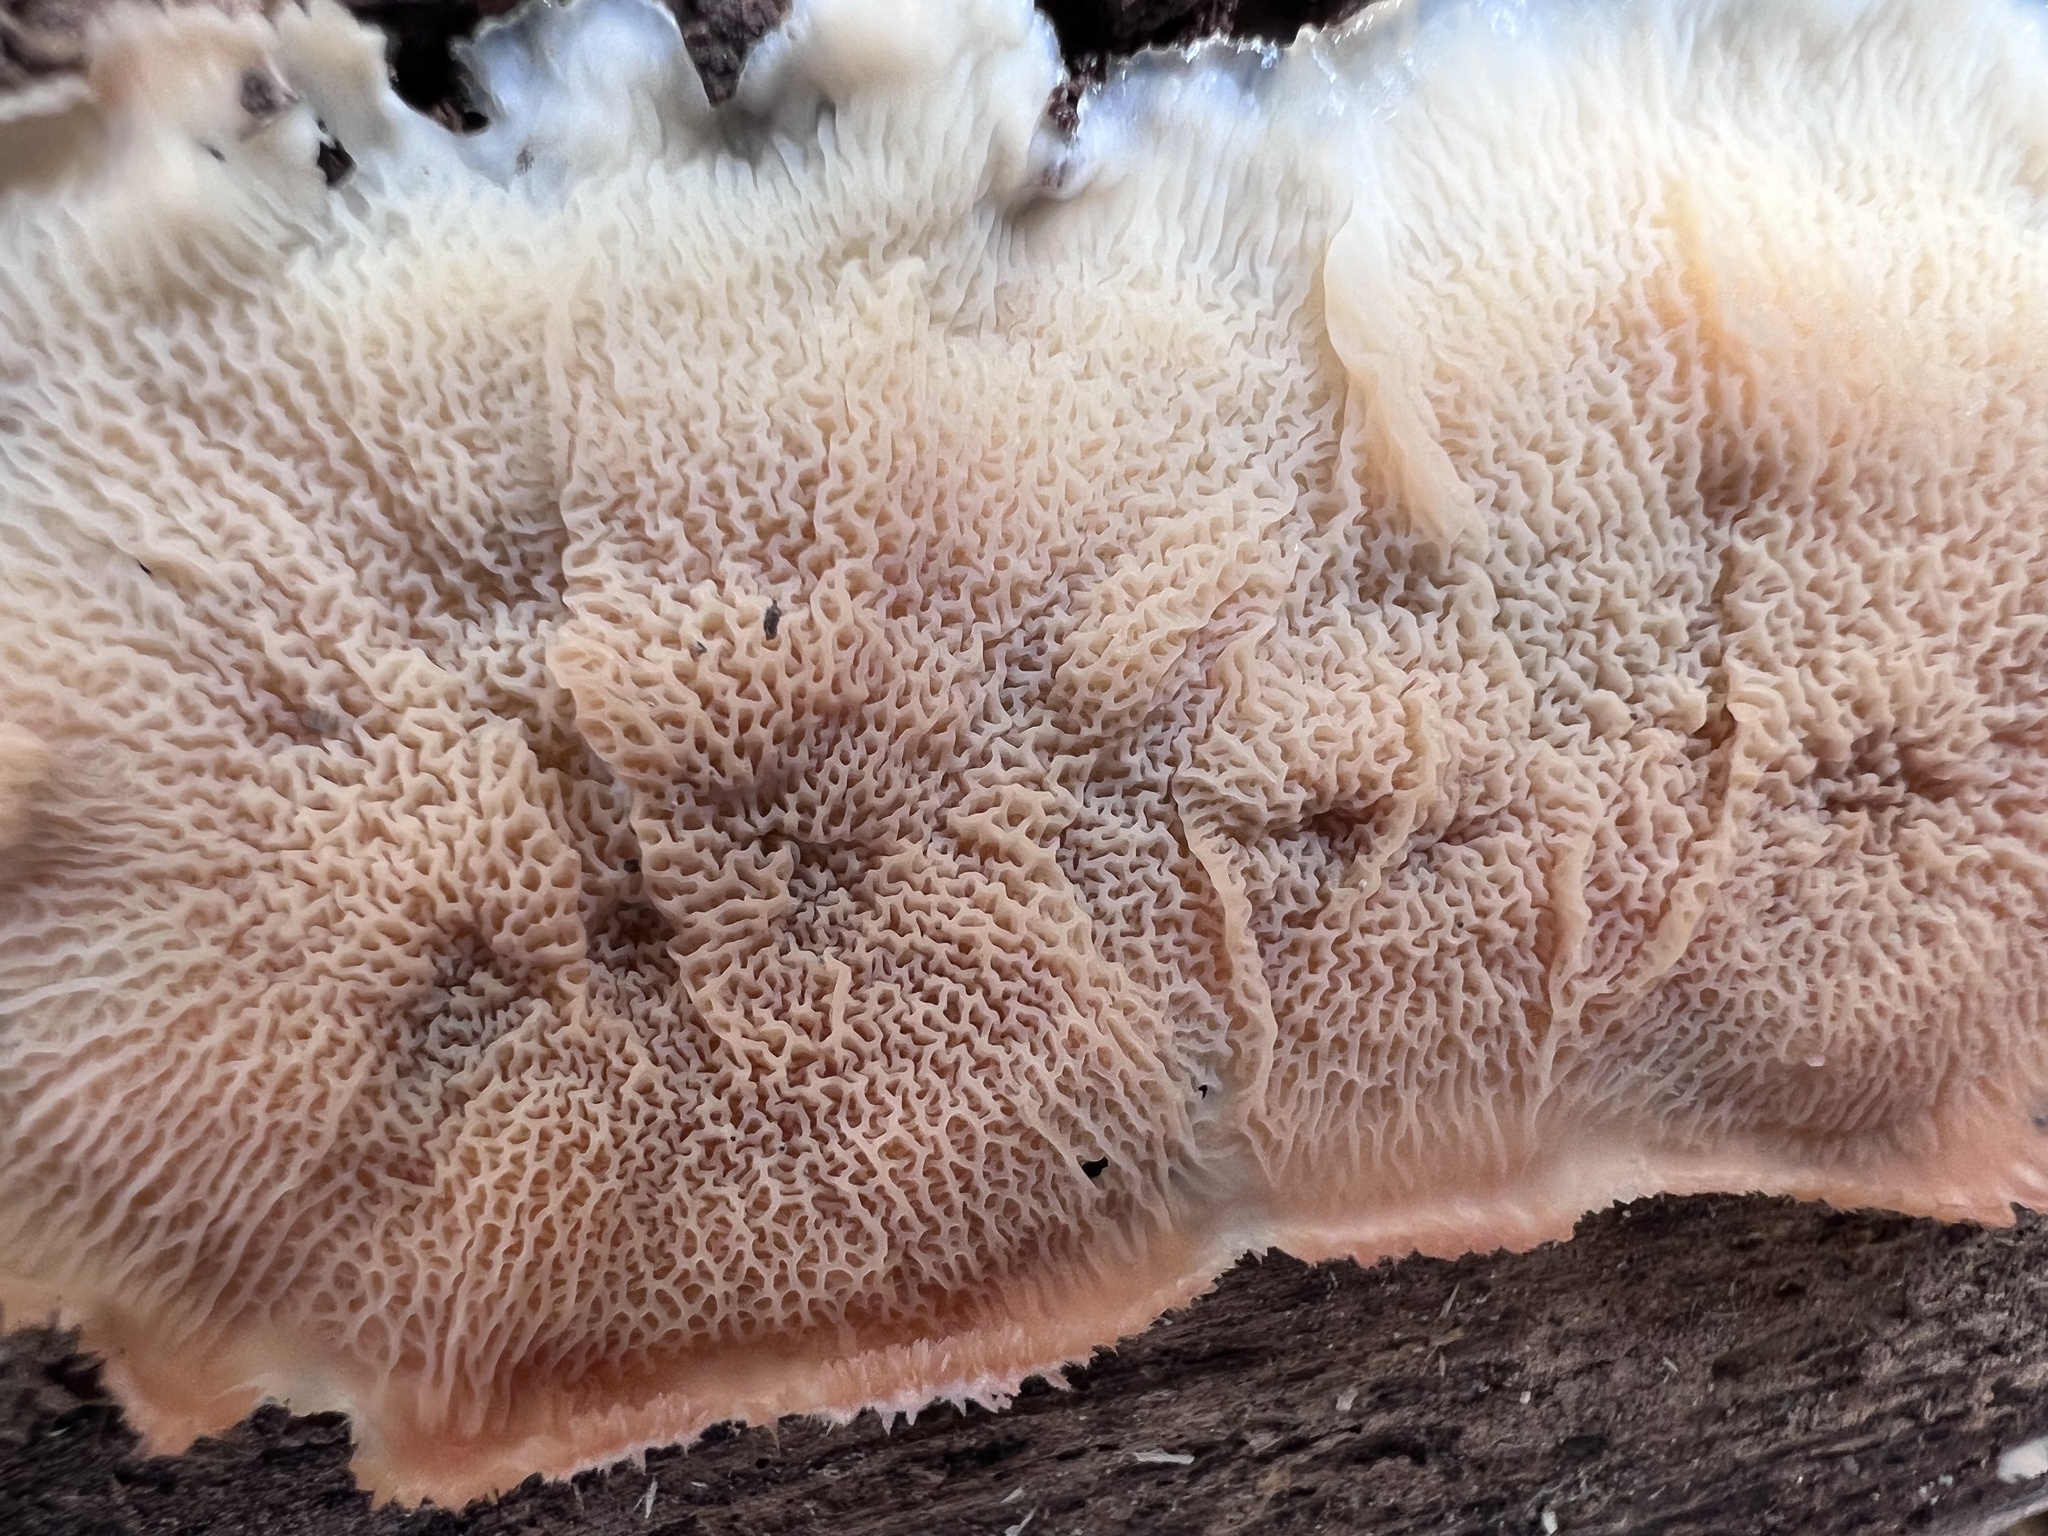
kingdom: Fungi
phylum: Basidiomycota
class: Agaricomycetes
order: Polyporales
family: Meruliaceae
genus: Phlebia
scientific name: Phlebia tremellosa
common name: Jelly rot
